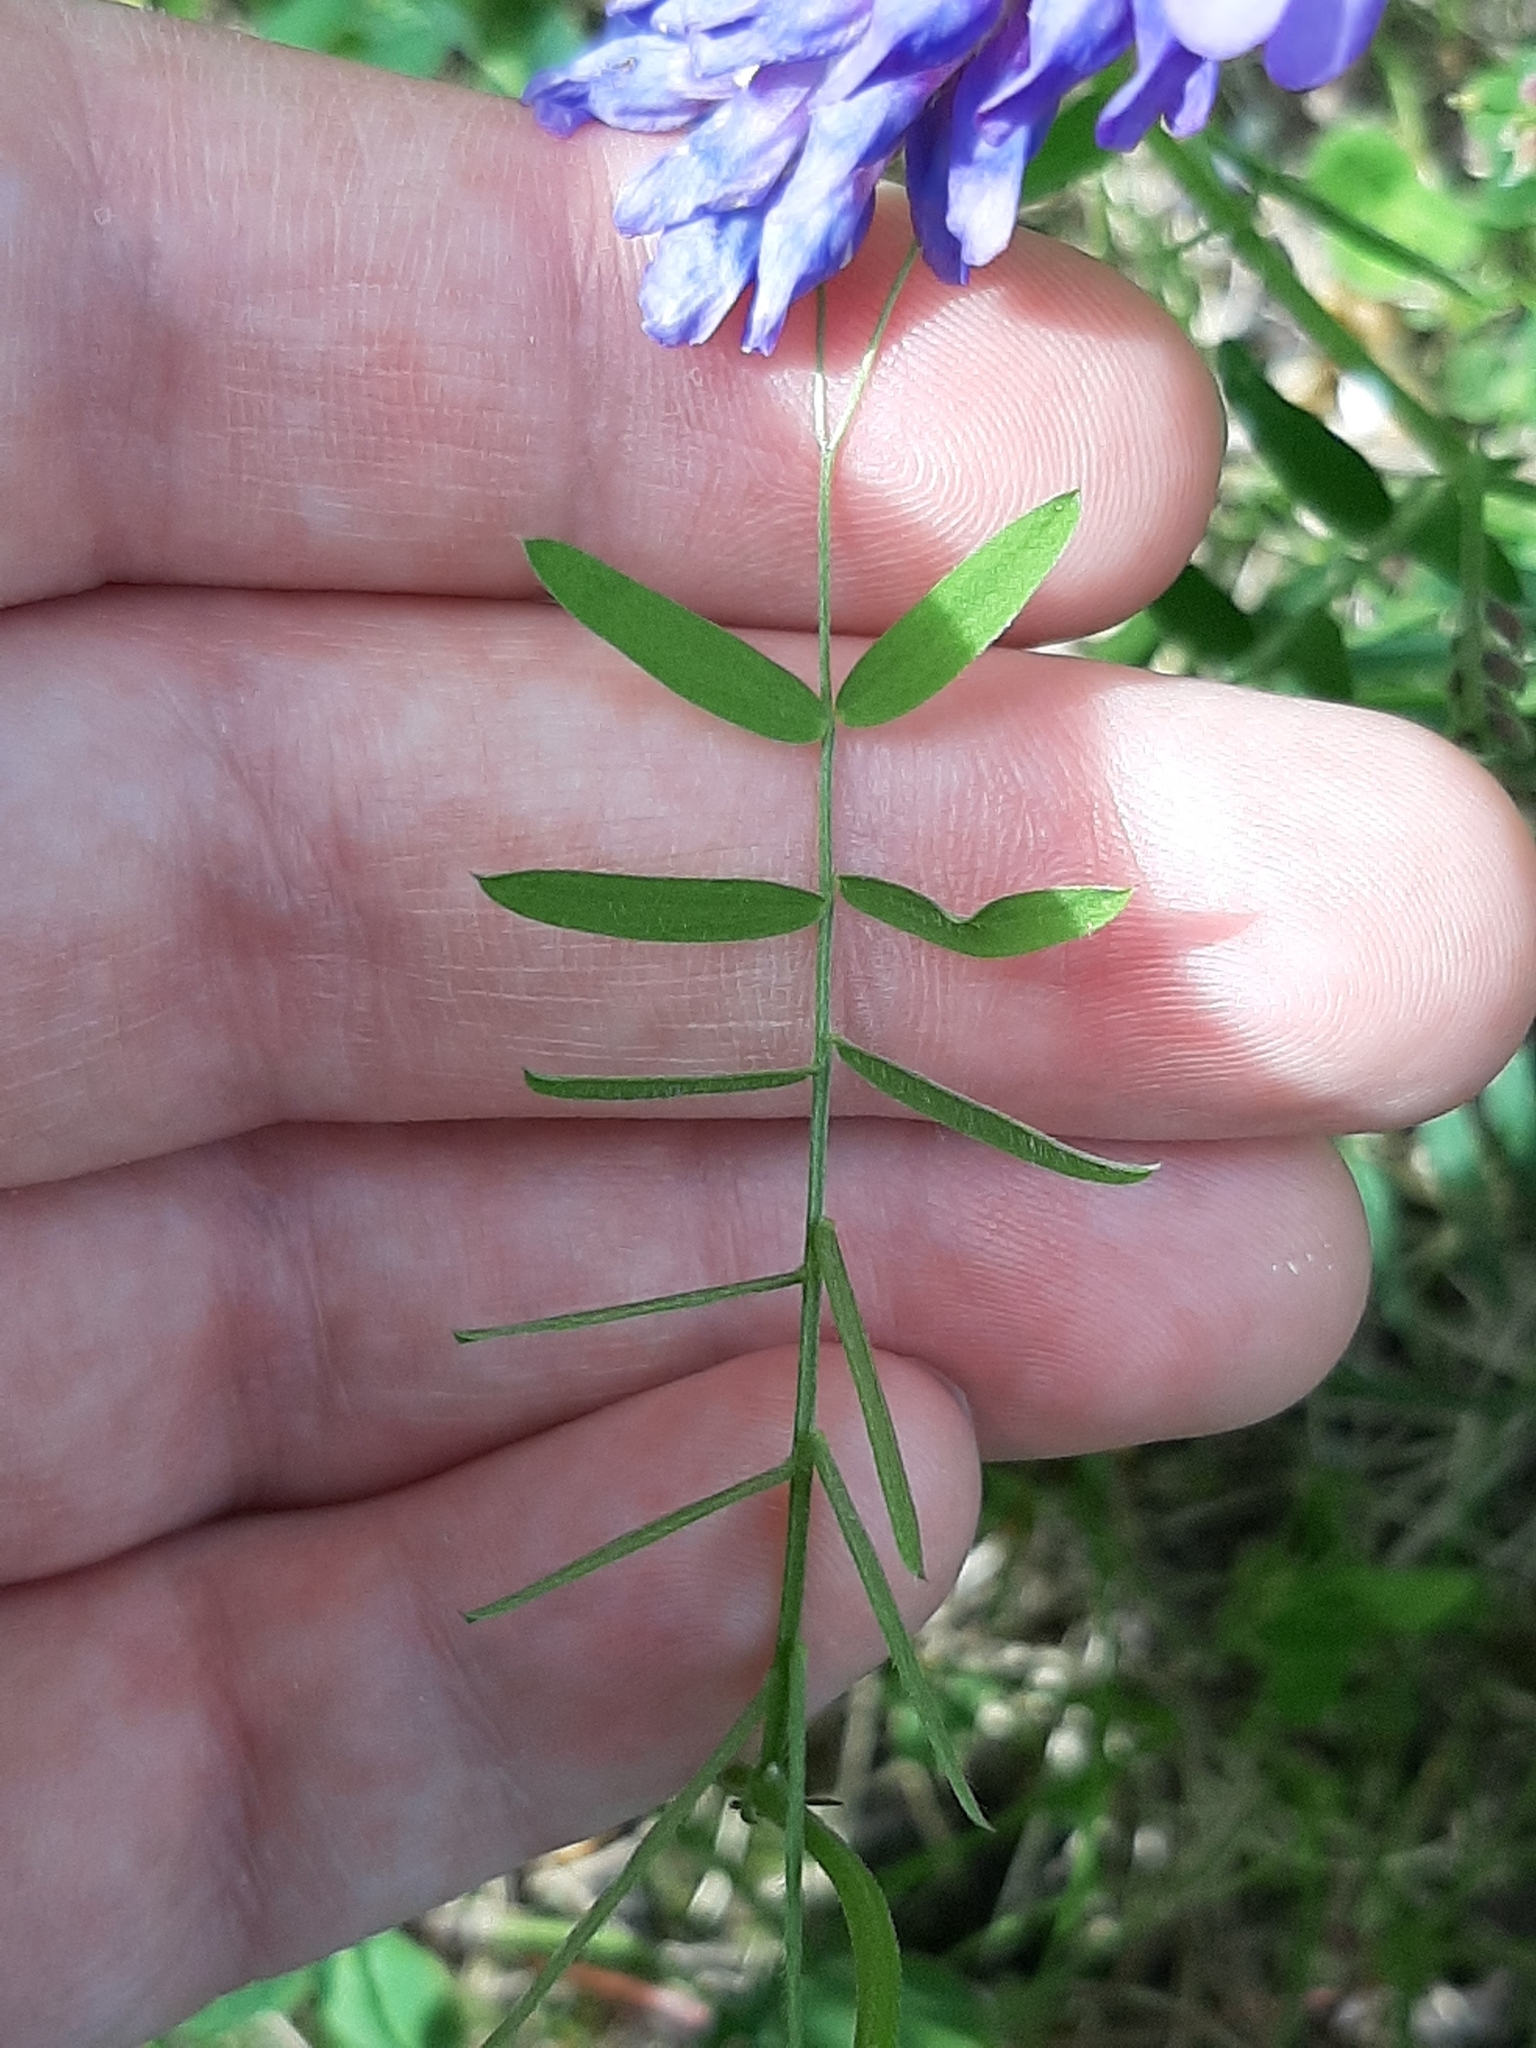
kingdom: Plantae
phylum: Tracheophyta
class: Magnoliopsida
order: Fabales
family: Fabaceae
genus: Vicia
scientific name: Vicia cracca
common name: Bird vetch
